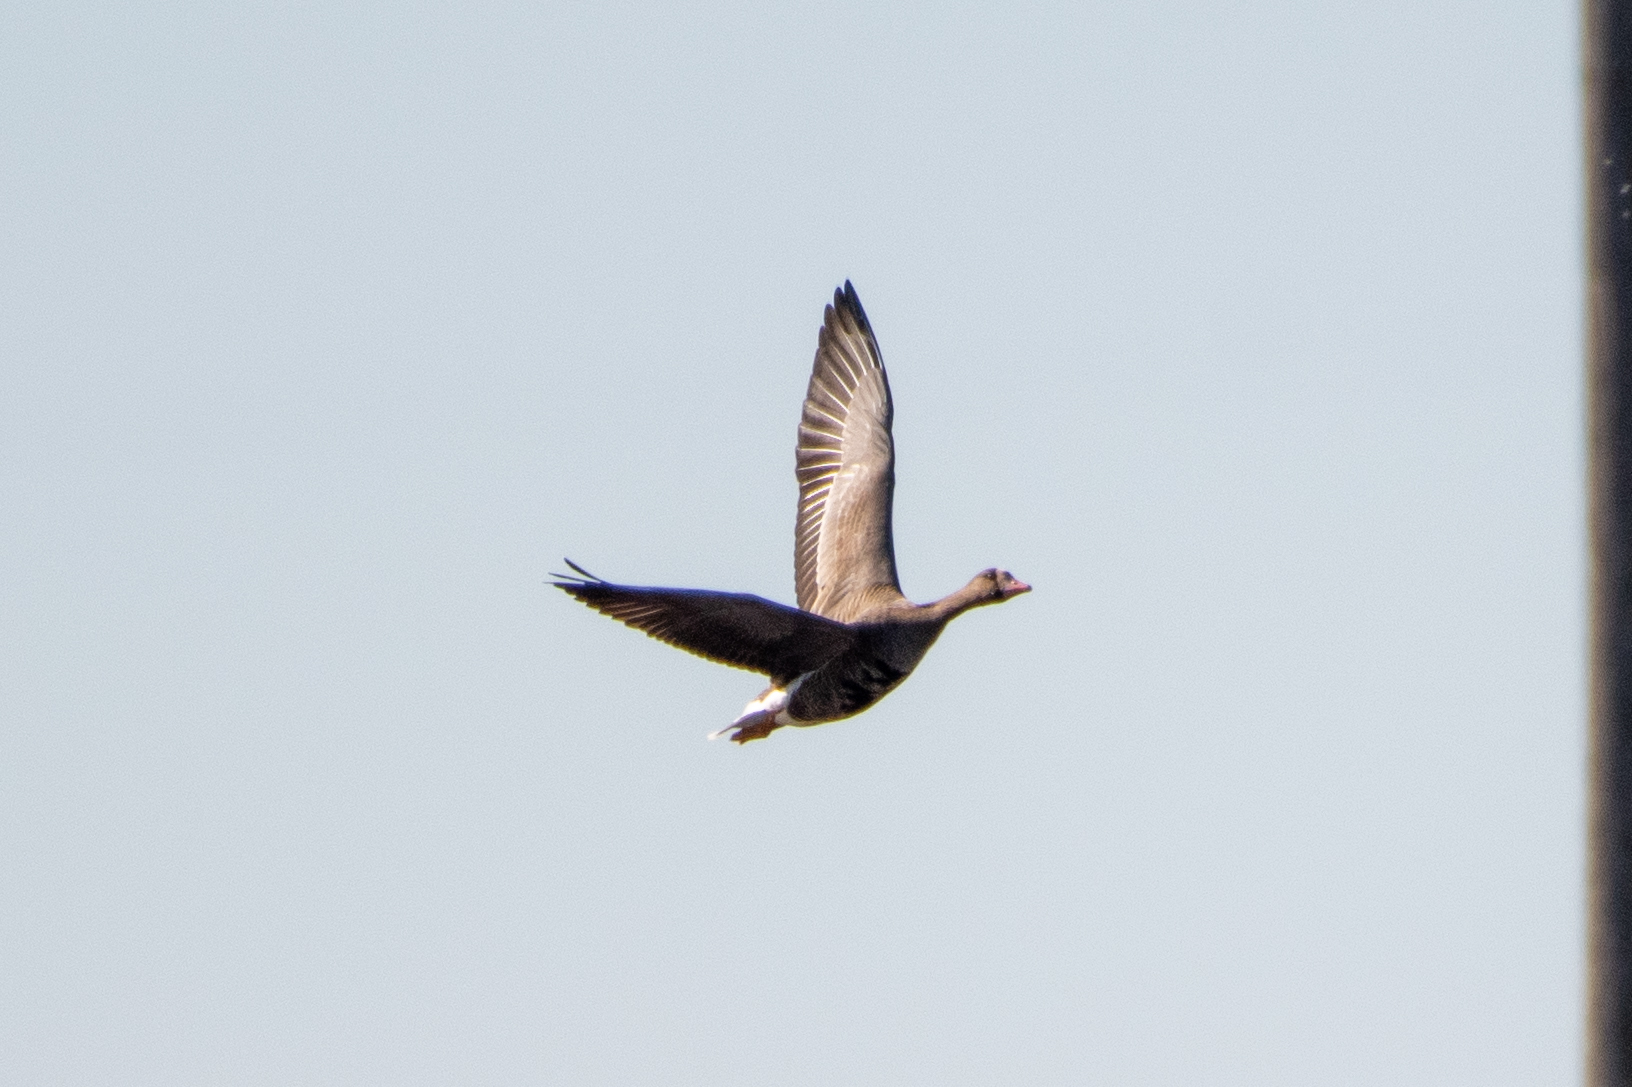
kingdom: Animalia
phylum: Chordata
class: Aves
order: Anseriformes
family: Anatidae
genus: Anser
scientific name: Anser albifrons
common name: Greater white-fronted goose
